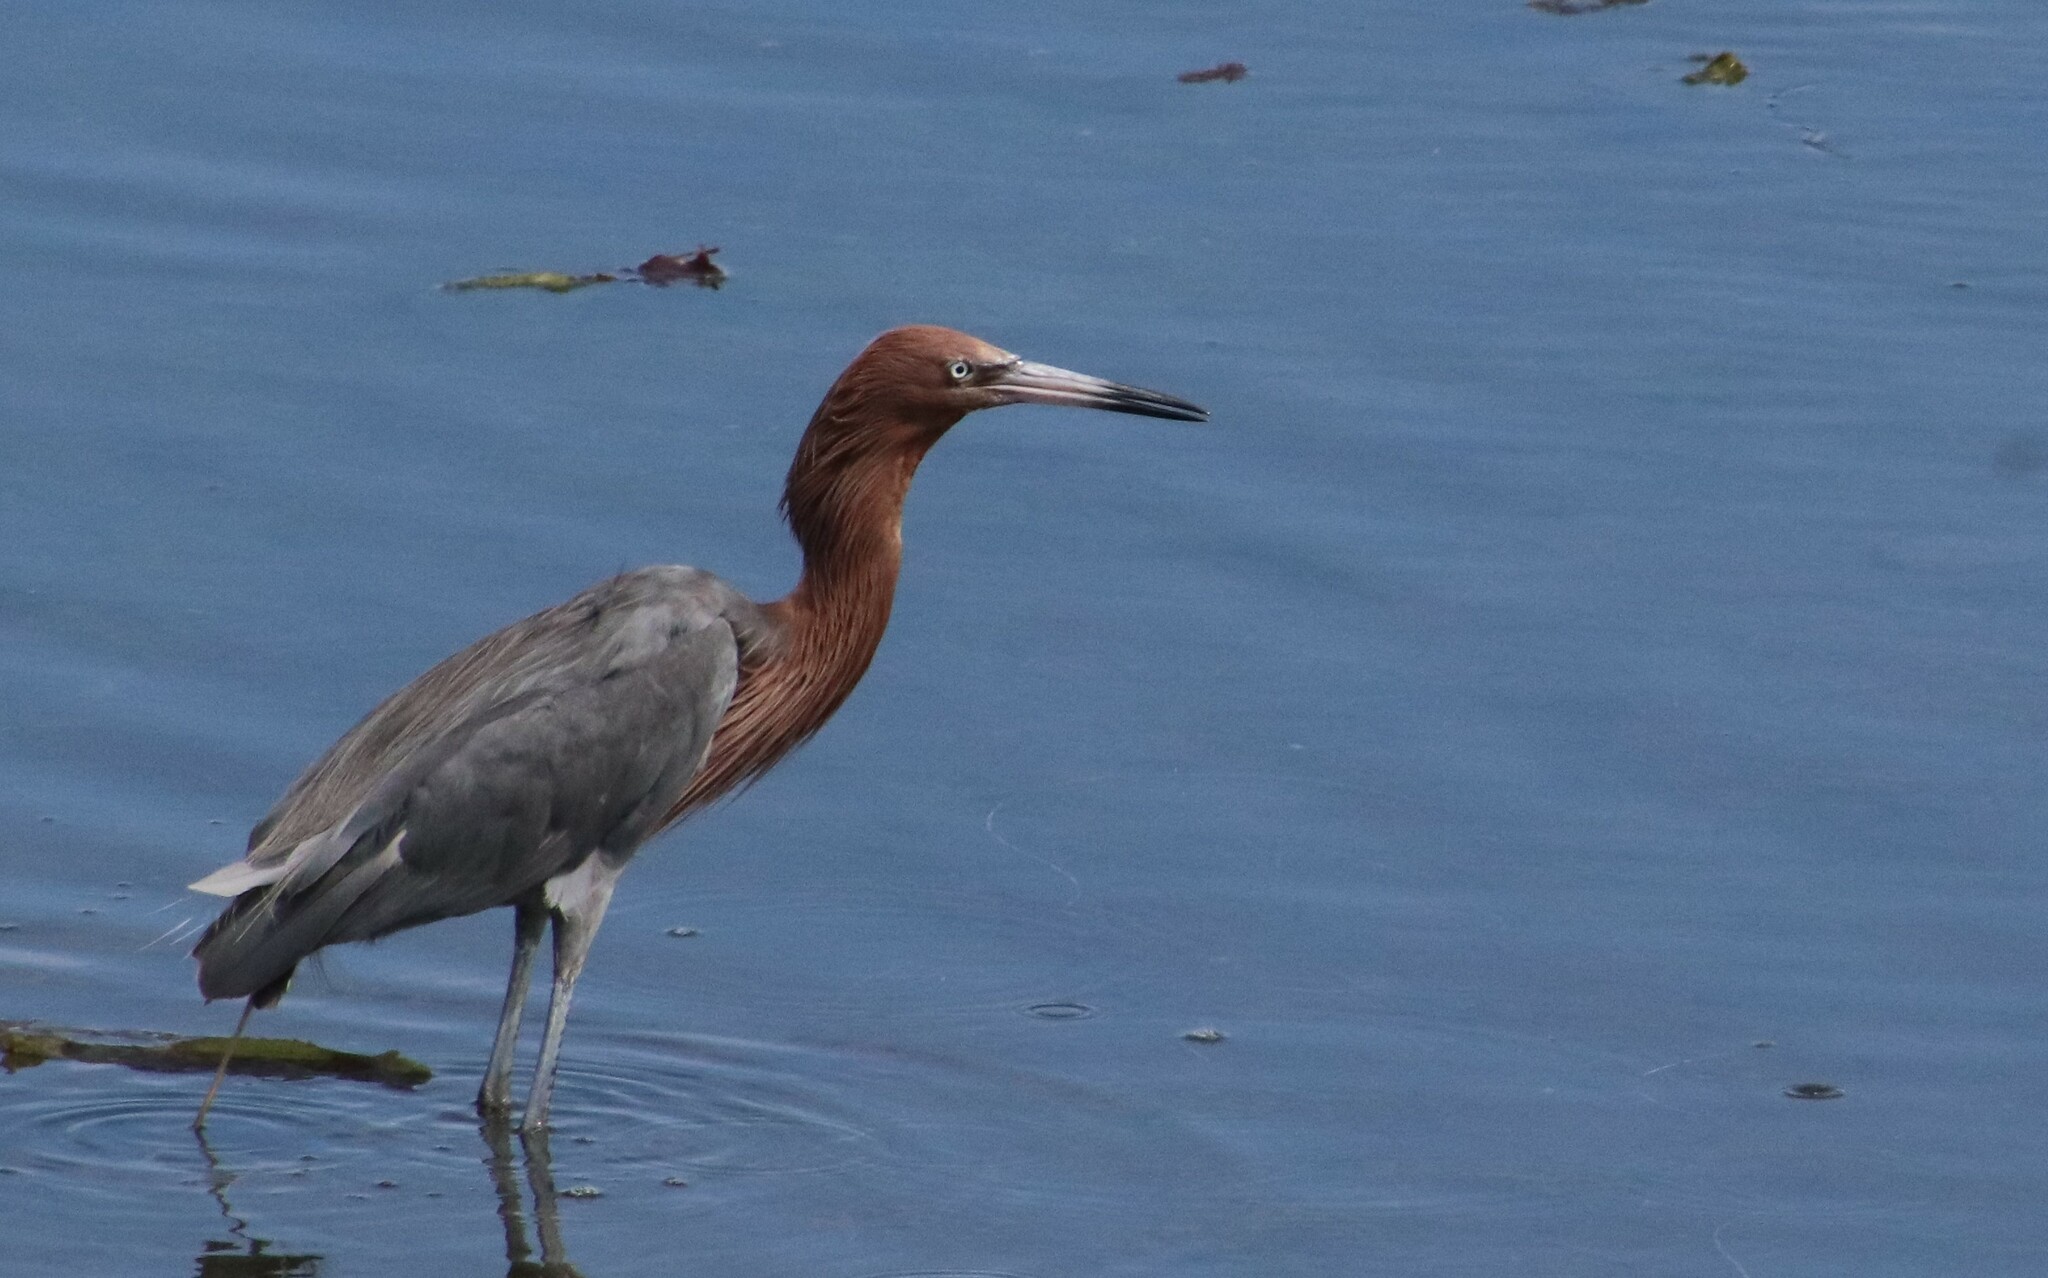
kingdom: Animalia
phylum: Chordata
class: Aves
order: Pelecaniformes
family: Ardeidae
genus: Egretta
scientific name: Egretta rufescens
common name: Reddish egret
